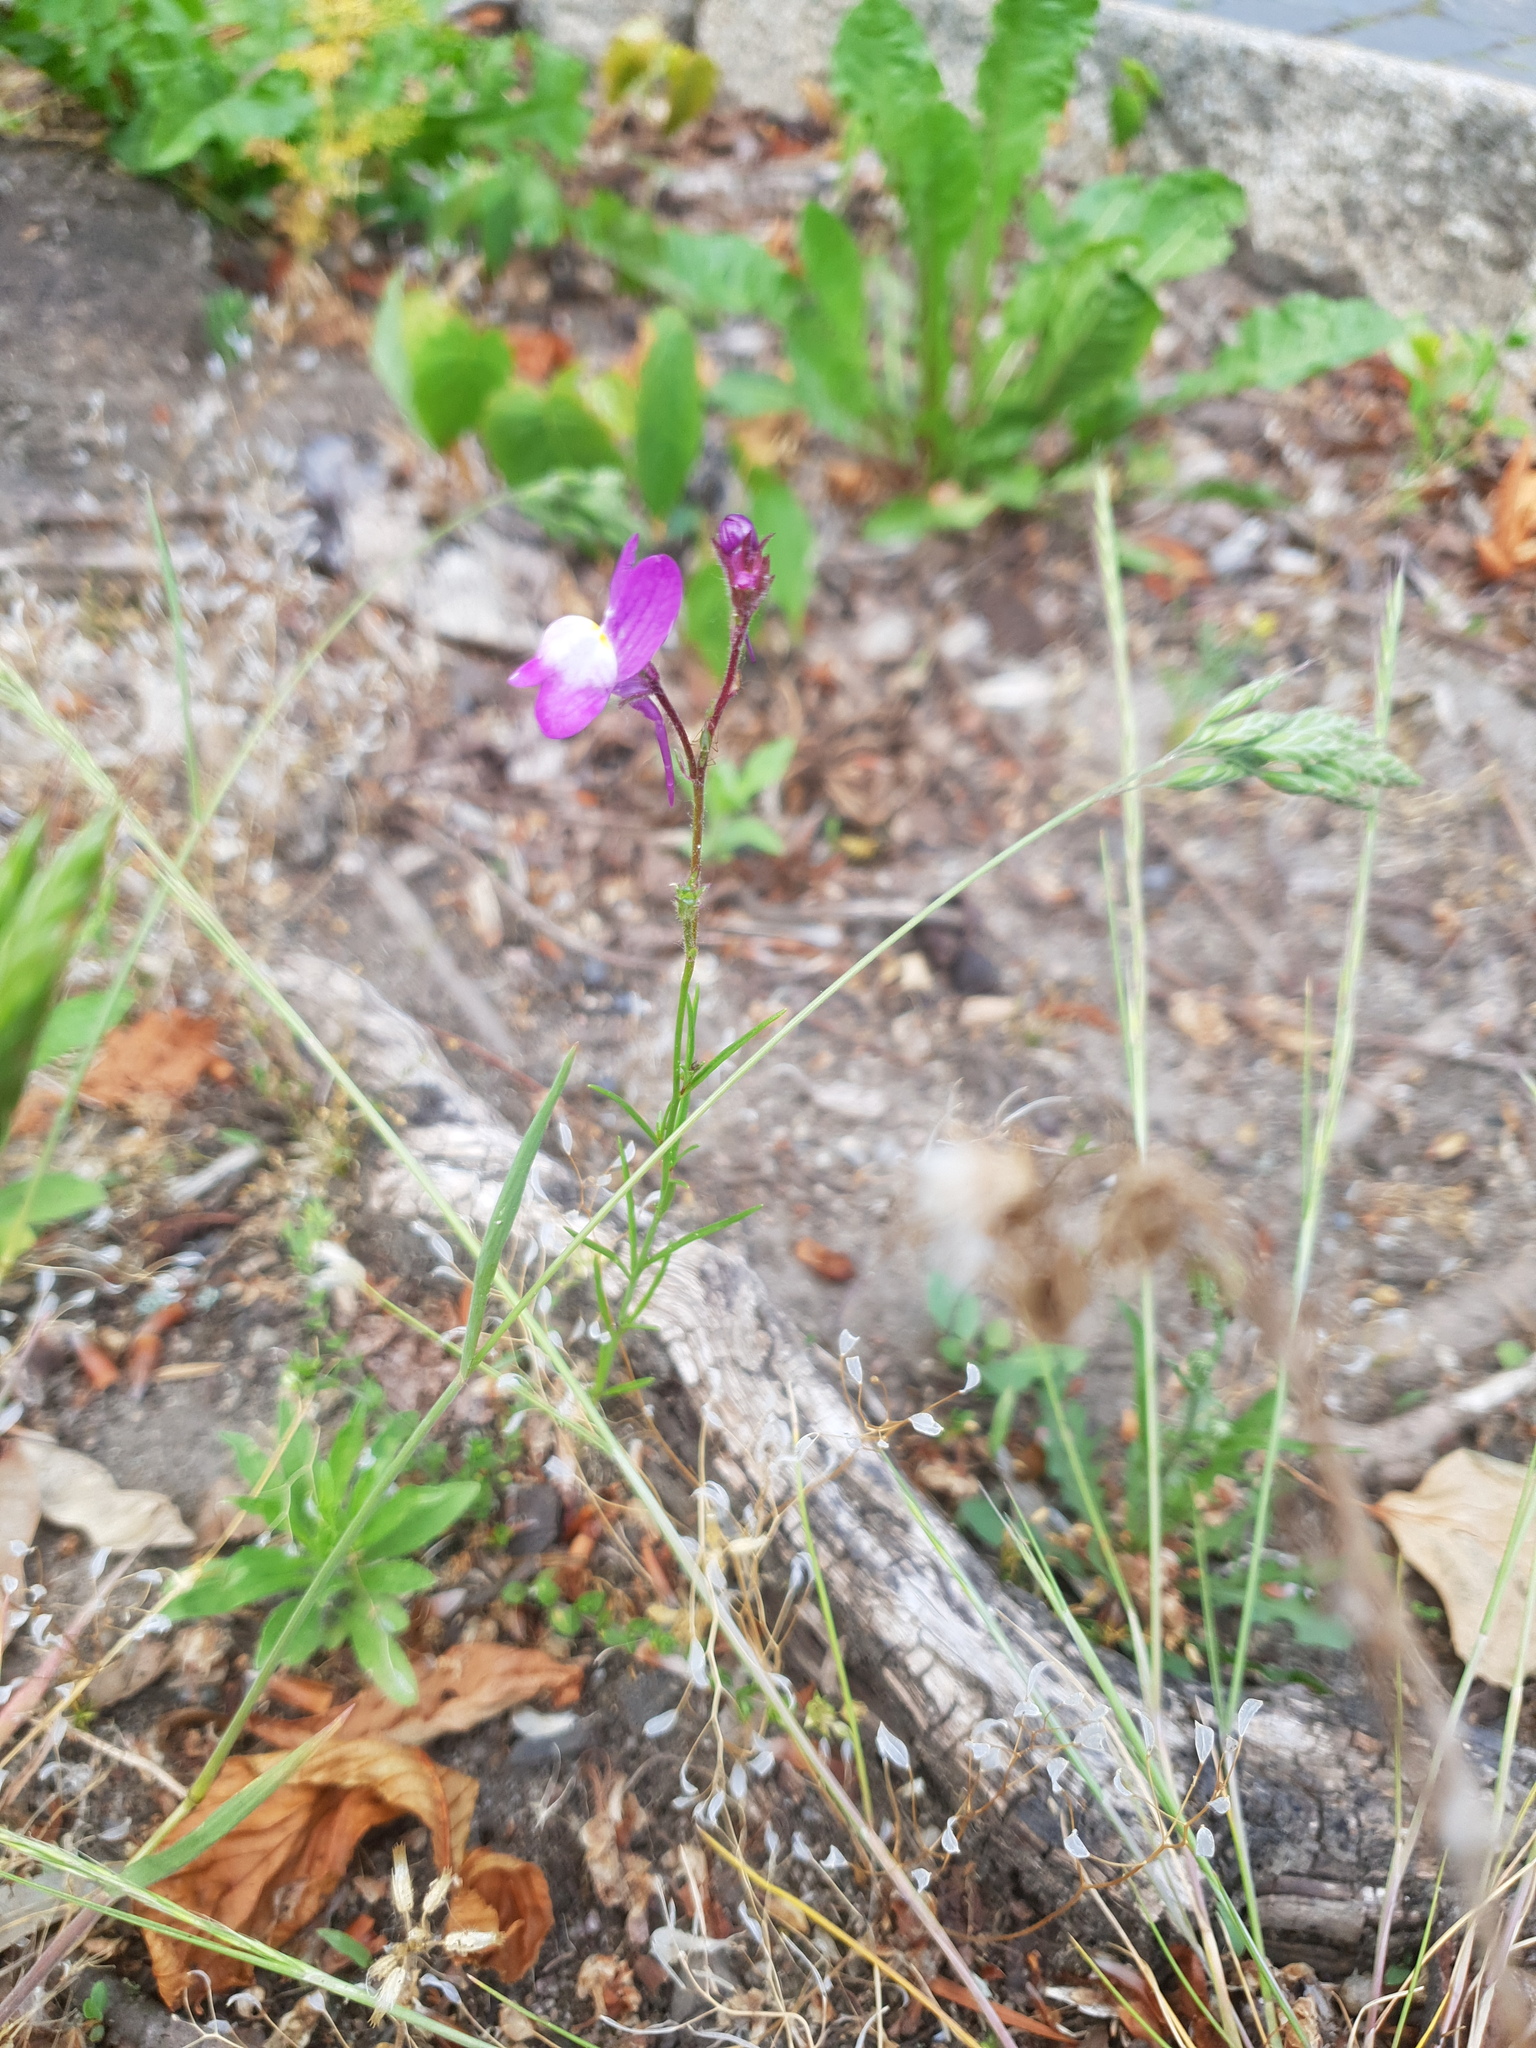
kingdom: Plantae
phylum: Tracheophyta
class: Magnoliopsida
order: Lamiales
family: Plantaginaceae
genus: Linaria
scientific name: Linaria maroccana
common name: Moroccan toadflax
